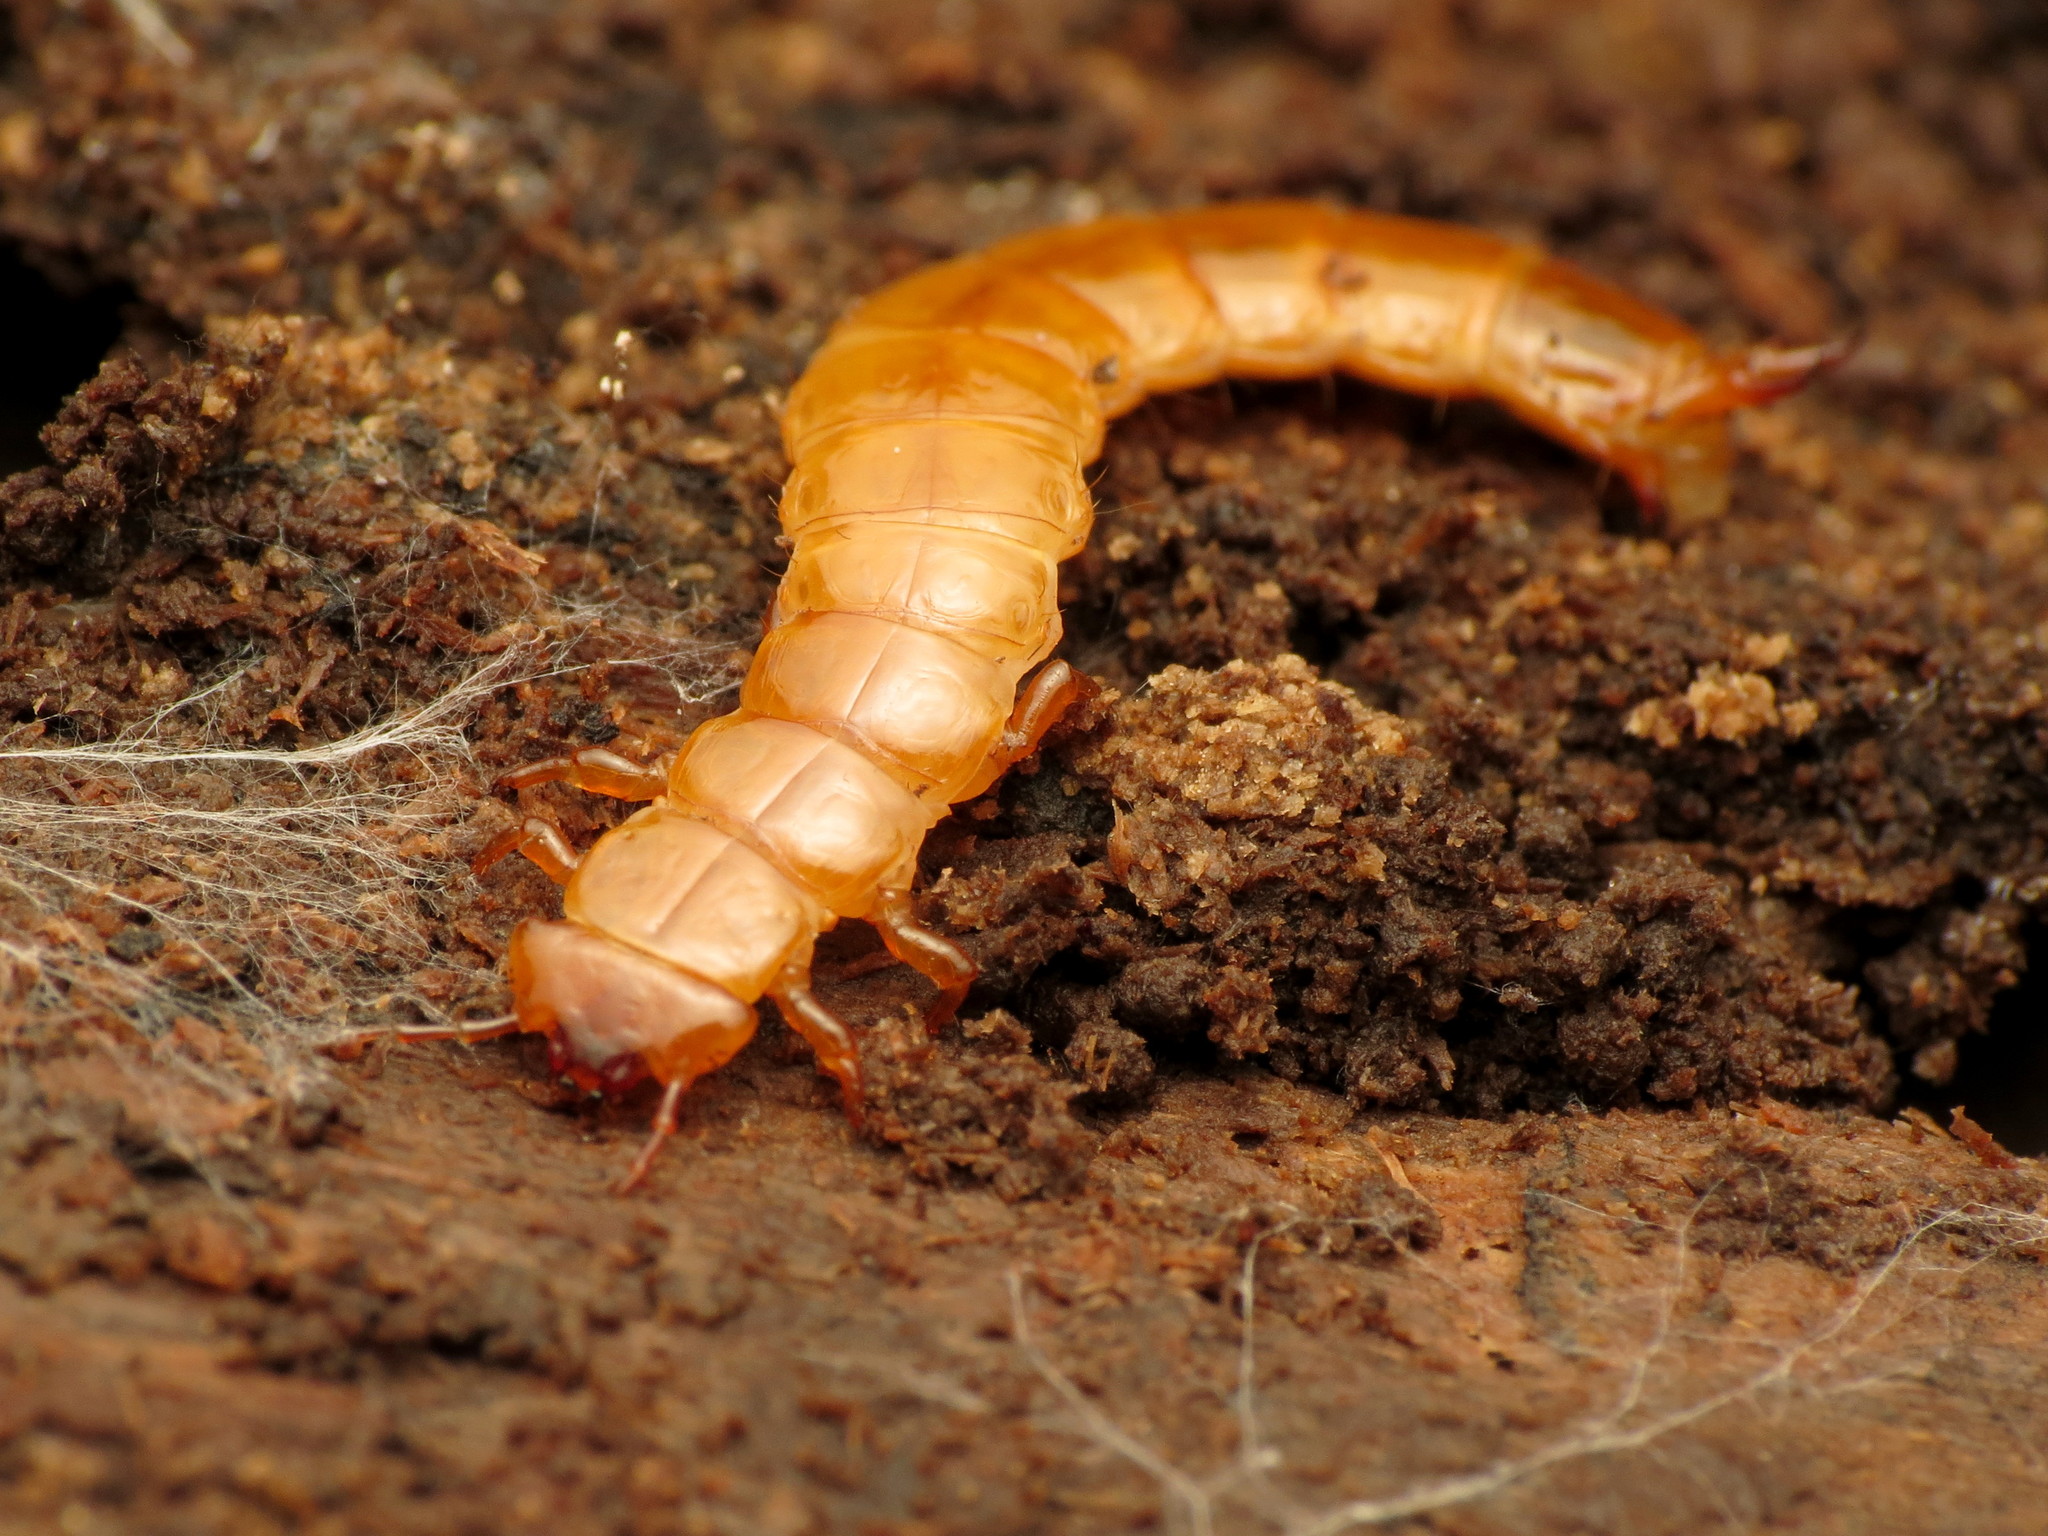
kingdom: Animalia
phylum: Arthropoda
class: Insecta
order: Coleoptera
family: Cucujidae
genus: Cucujus
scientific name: Cucujus clavipes
